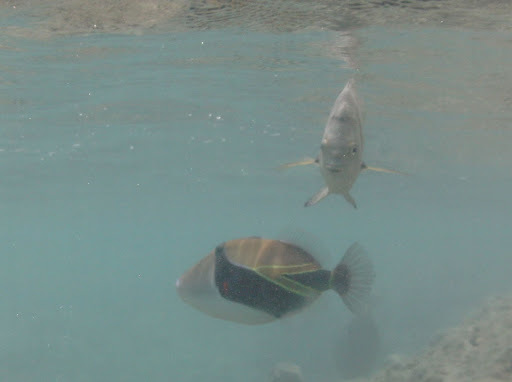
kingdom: Animalia
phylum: Chordata
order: Tetraodontiformes
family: Balistidae
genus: Rhinecanthus
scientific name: Rhinecanthus rectangulus
